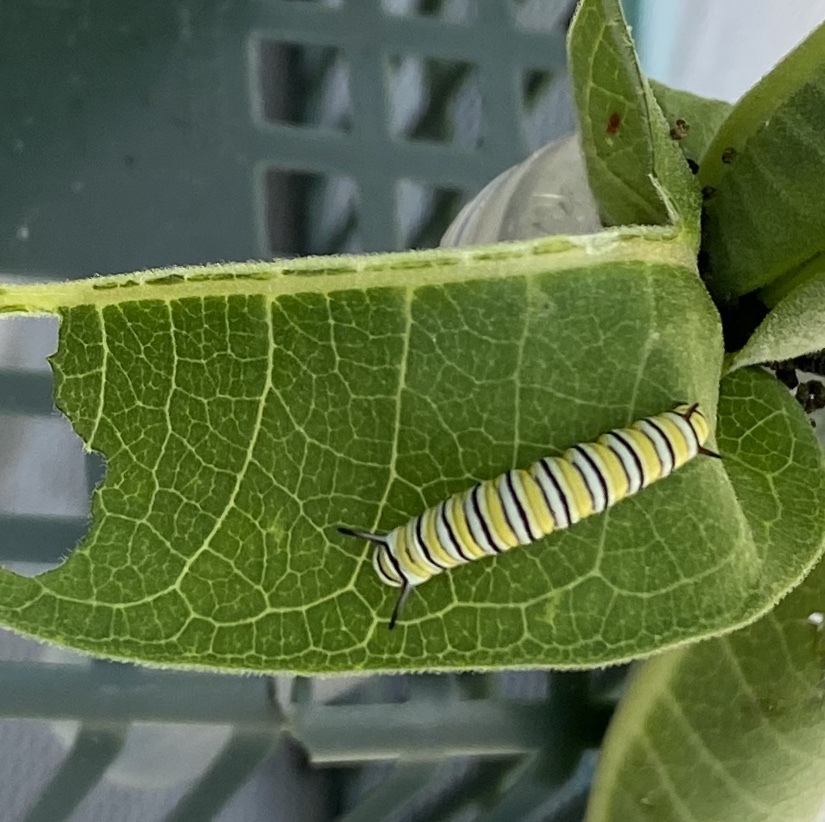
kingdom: Animalia
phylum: Arthropoda
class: Insecta
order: Lepidoptera
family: Nymphalidae
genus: Danaus
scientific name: Danaus plexippus
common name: Monarch
